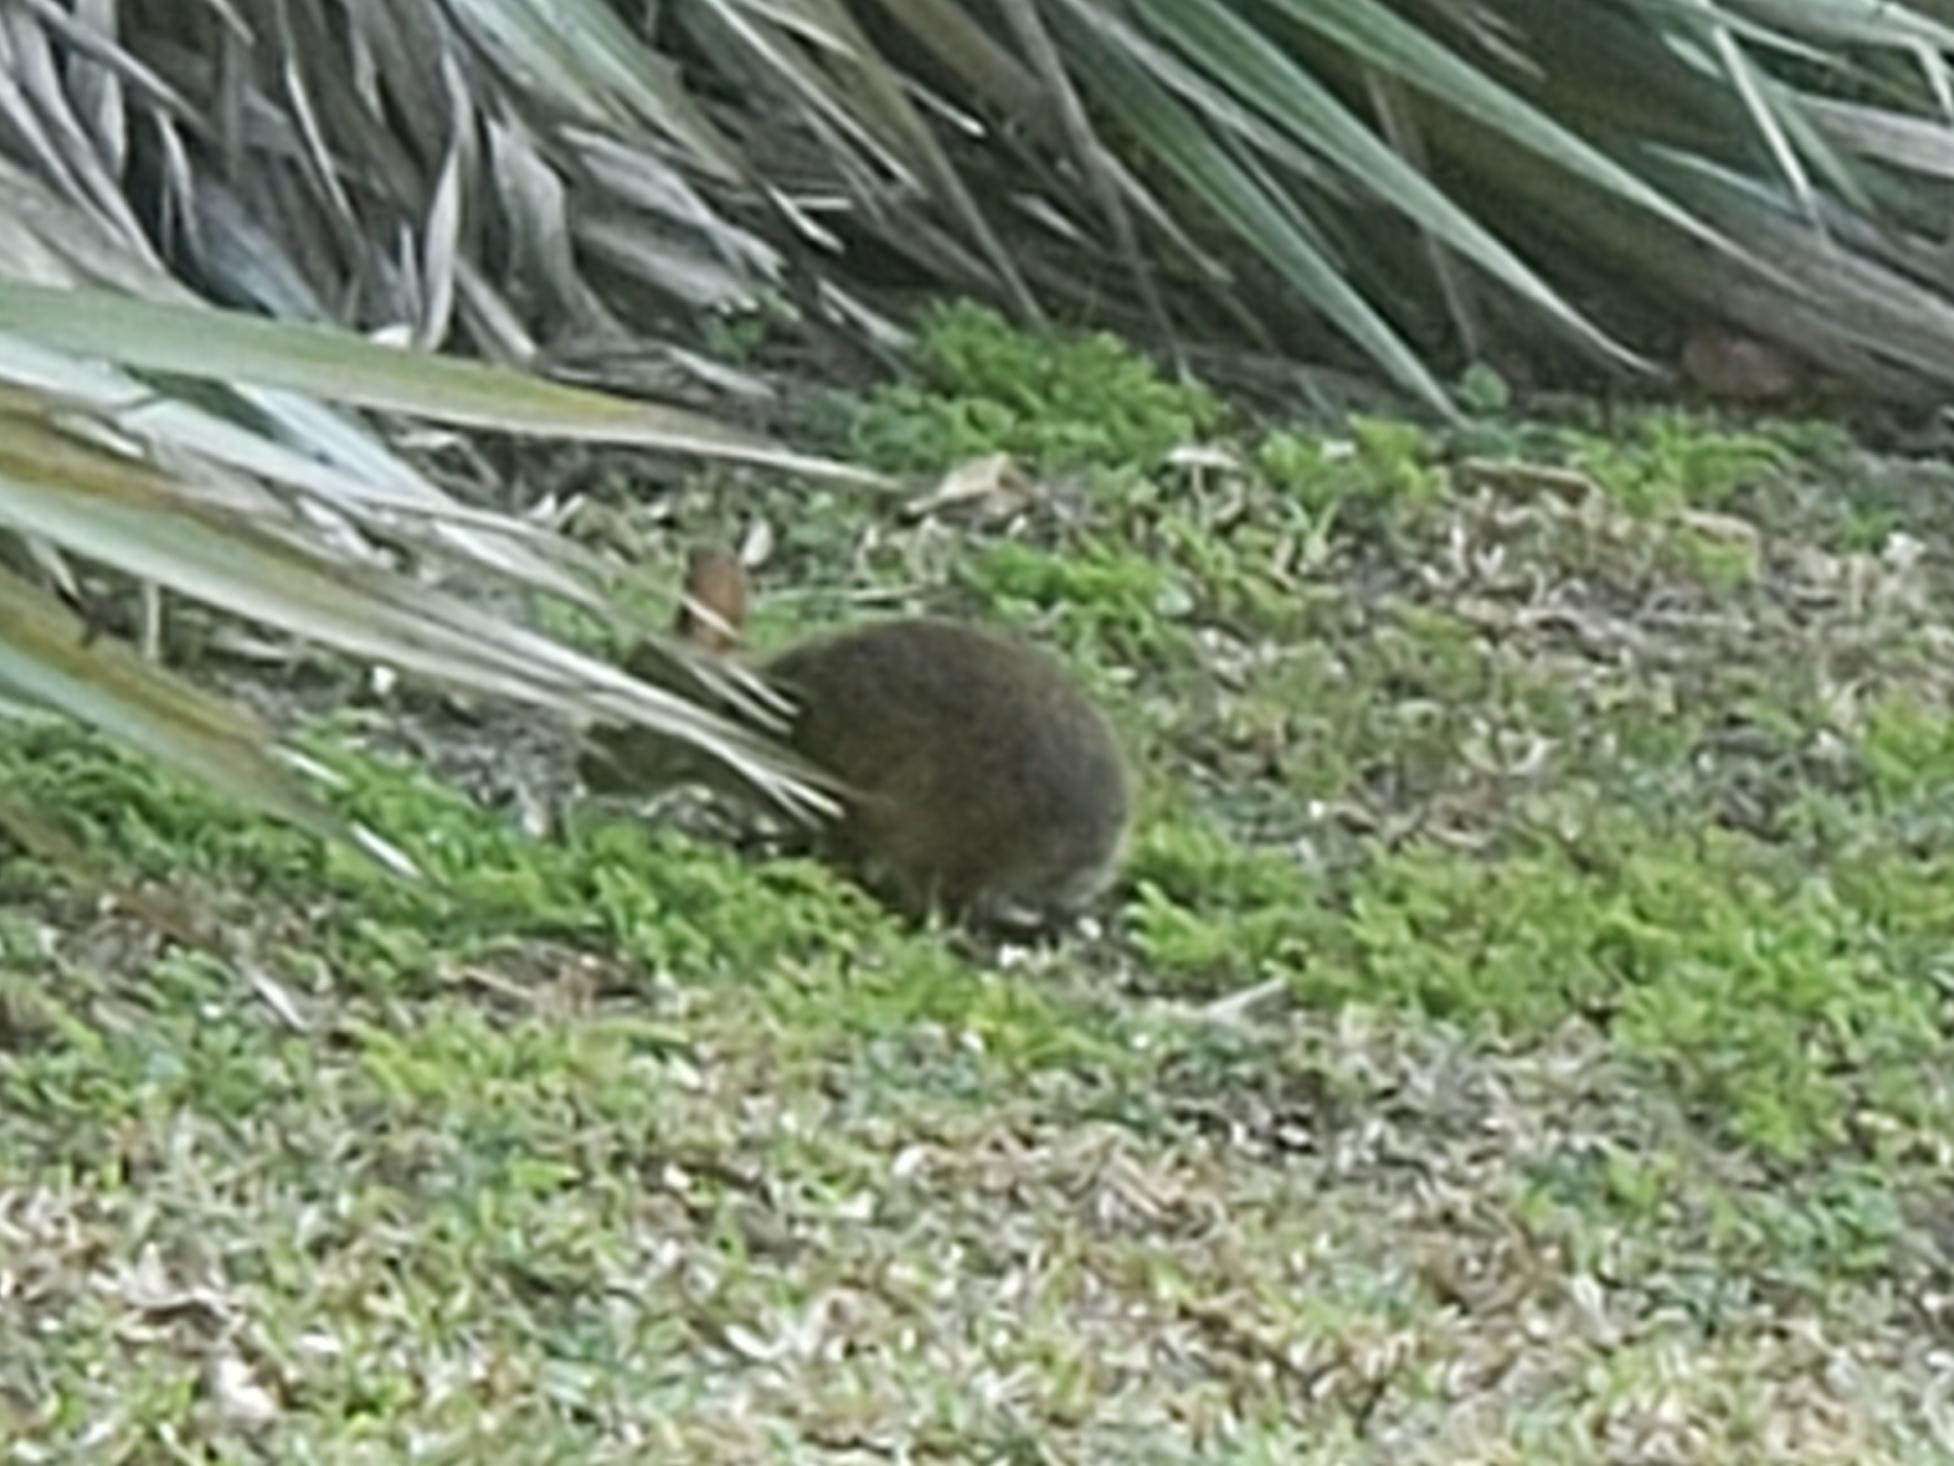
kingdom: Animalia
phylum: Chordata
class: Mammalia
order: Lagomorpha
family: Leporidae
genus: Sylvilagus
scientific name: Sylvilagus palustris
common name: Marsh rabbit
